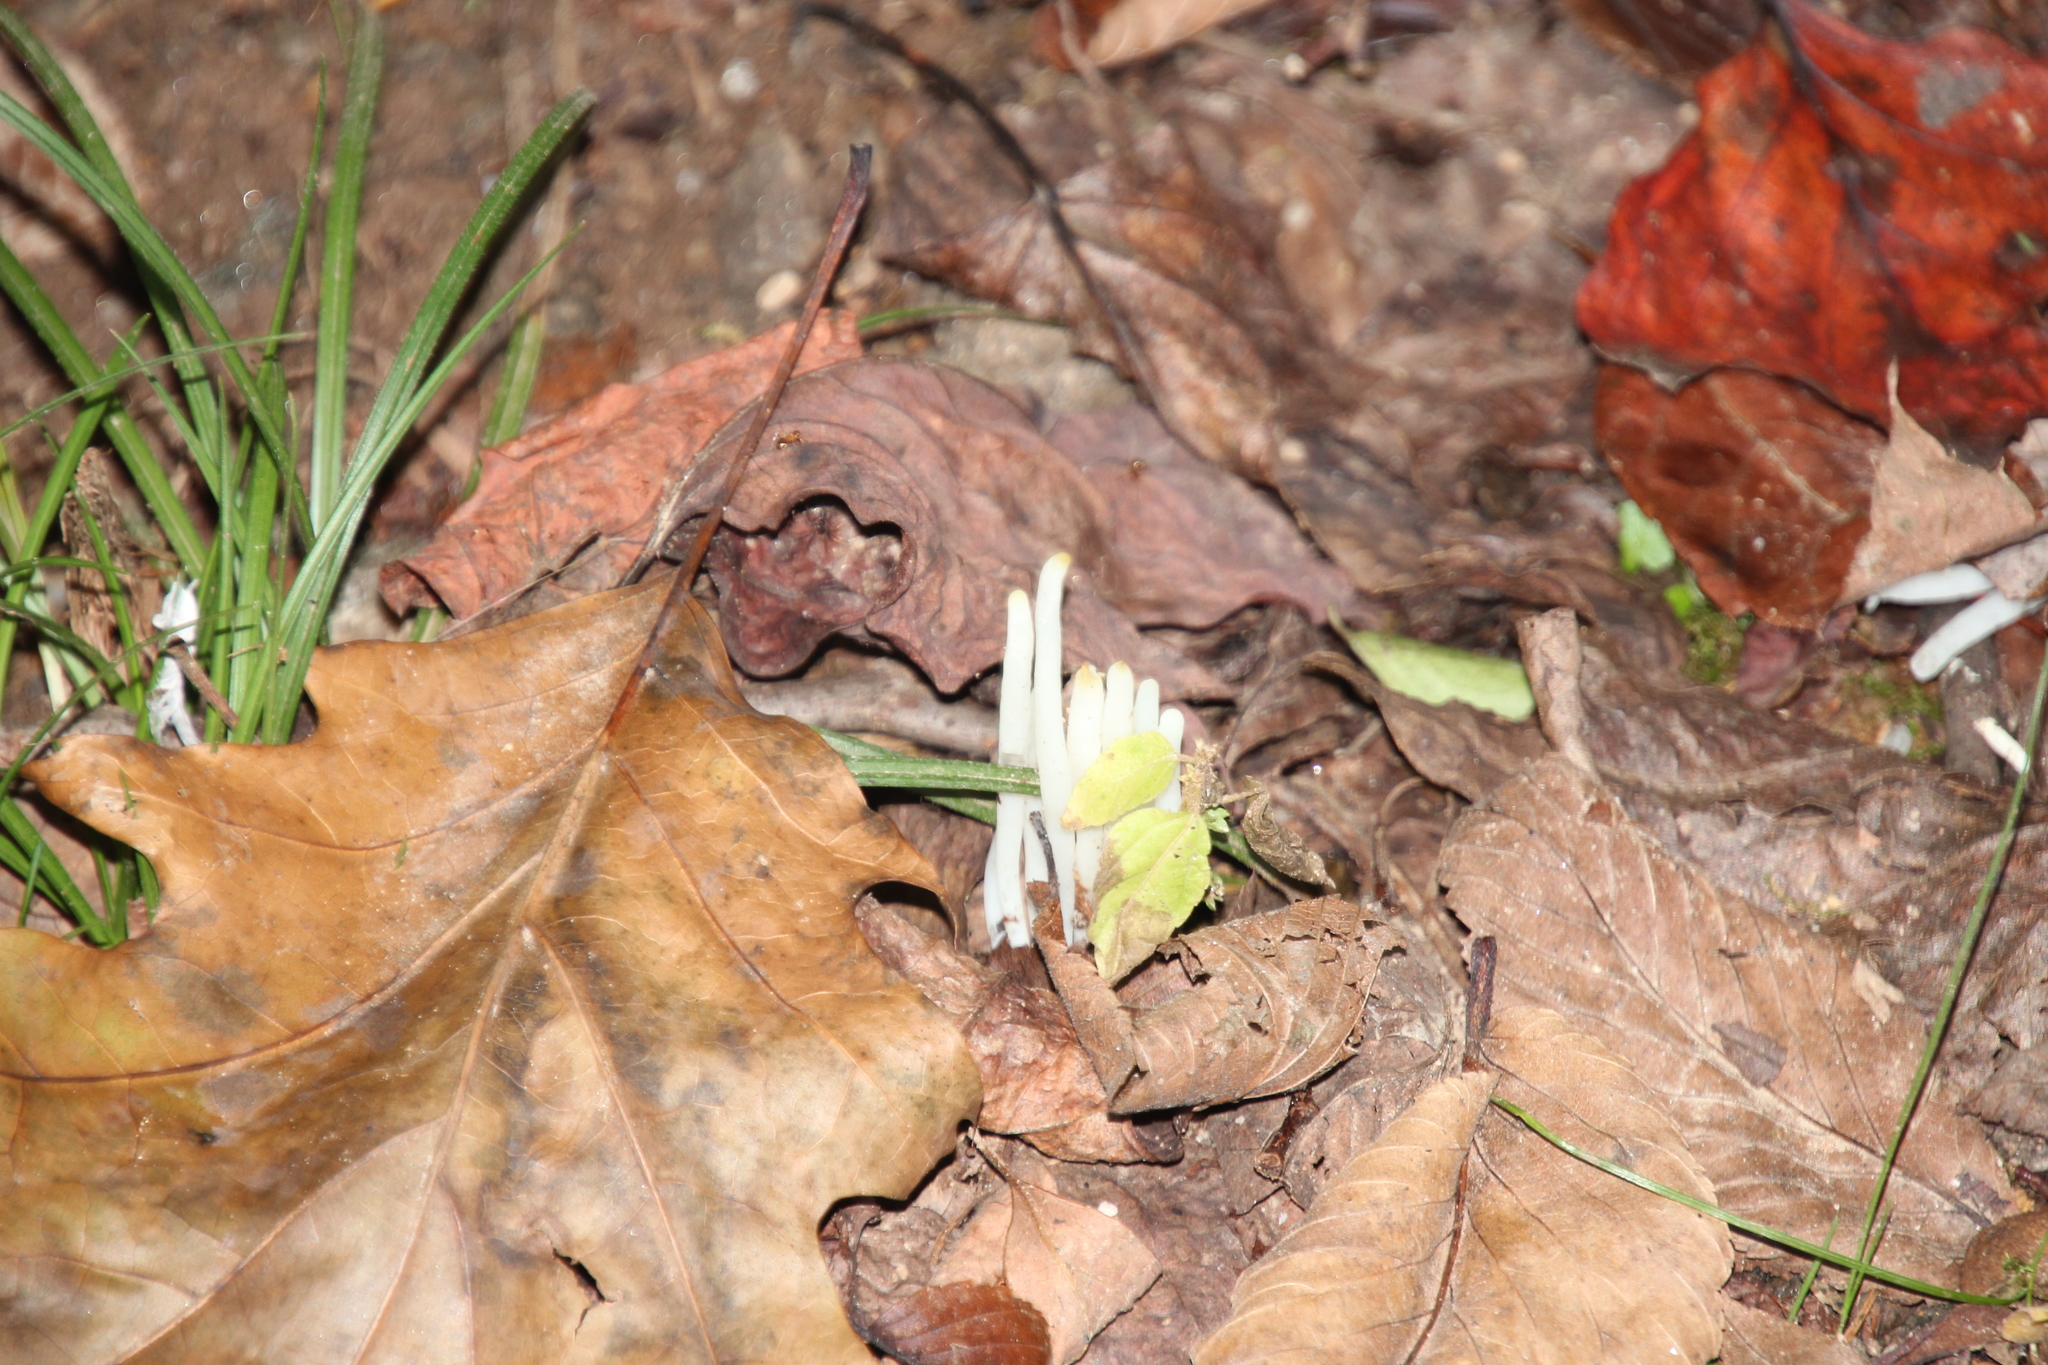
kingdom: Fungi
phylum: Basidiomycota
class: Agaricomycetes
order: Agaricales
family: Clavariaceae
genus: Clavaria
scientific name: Clavaria fragilis
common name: White spindles
